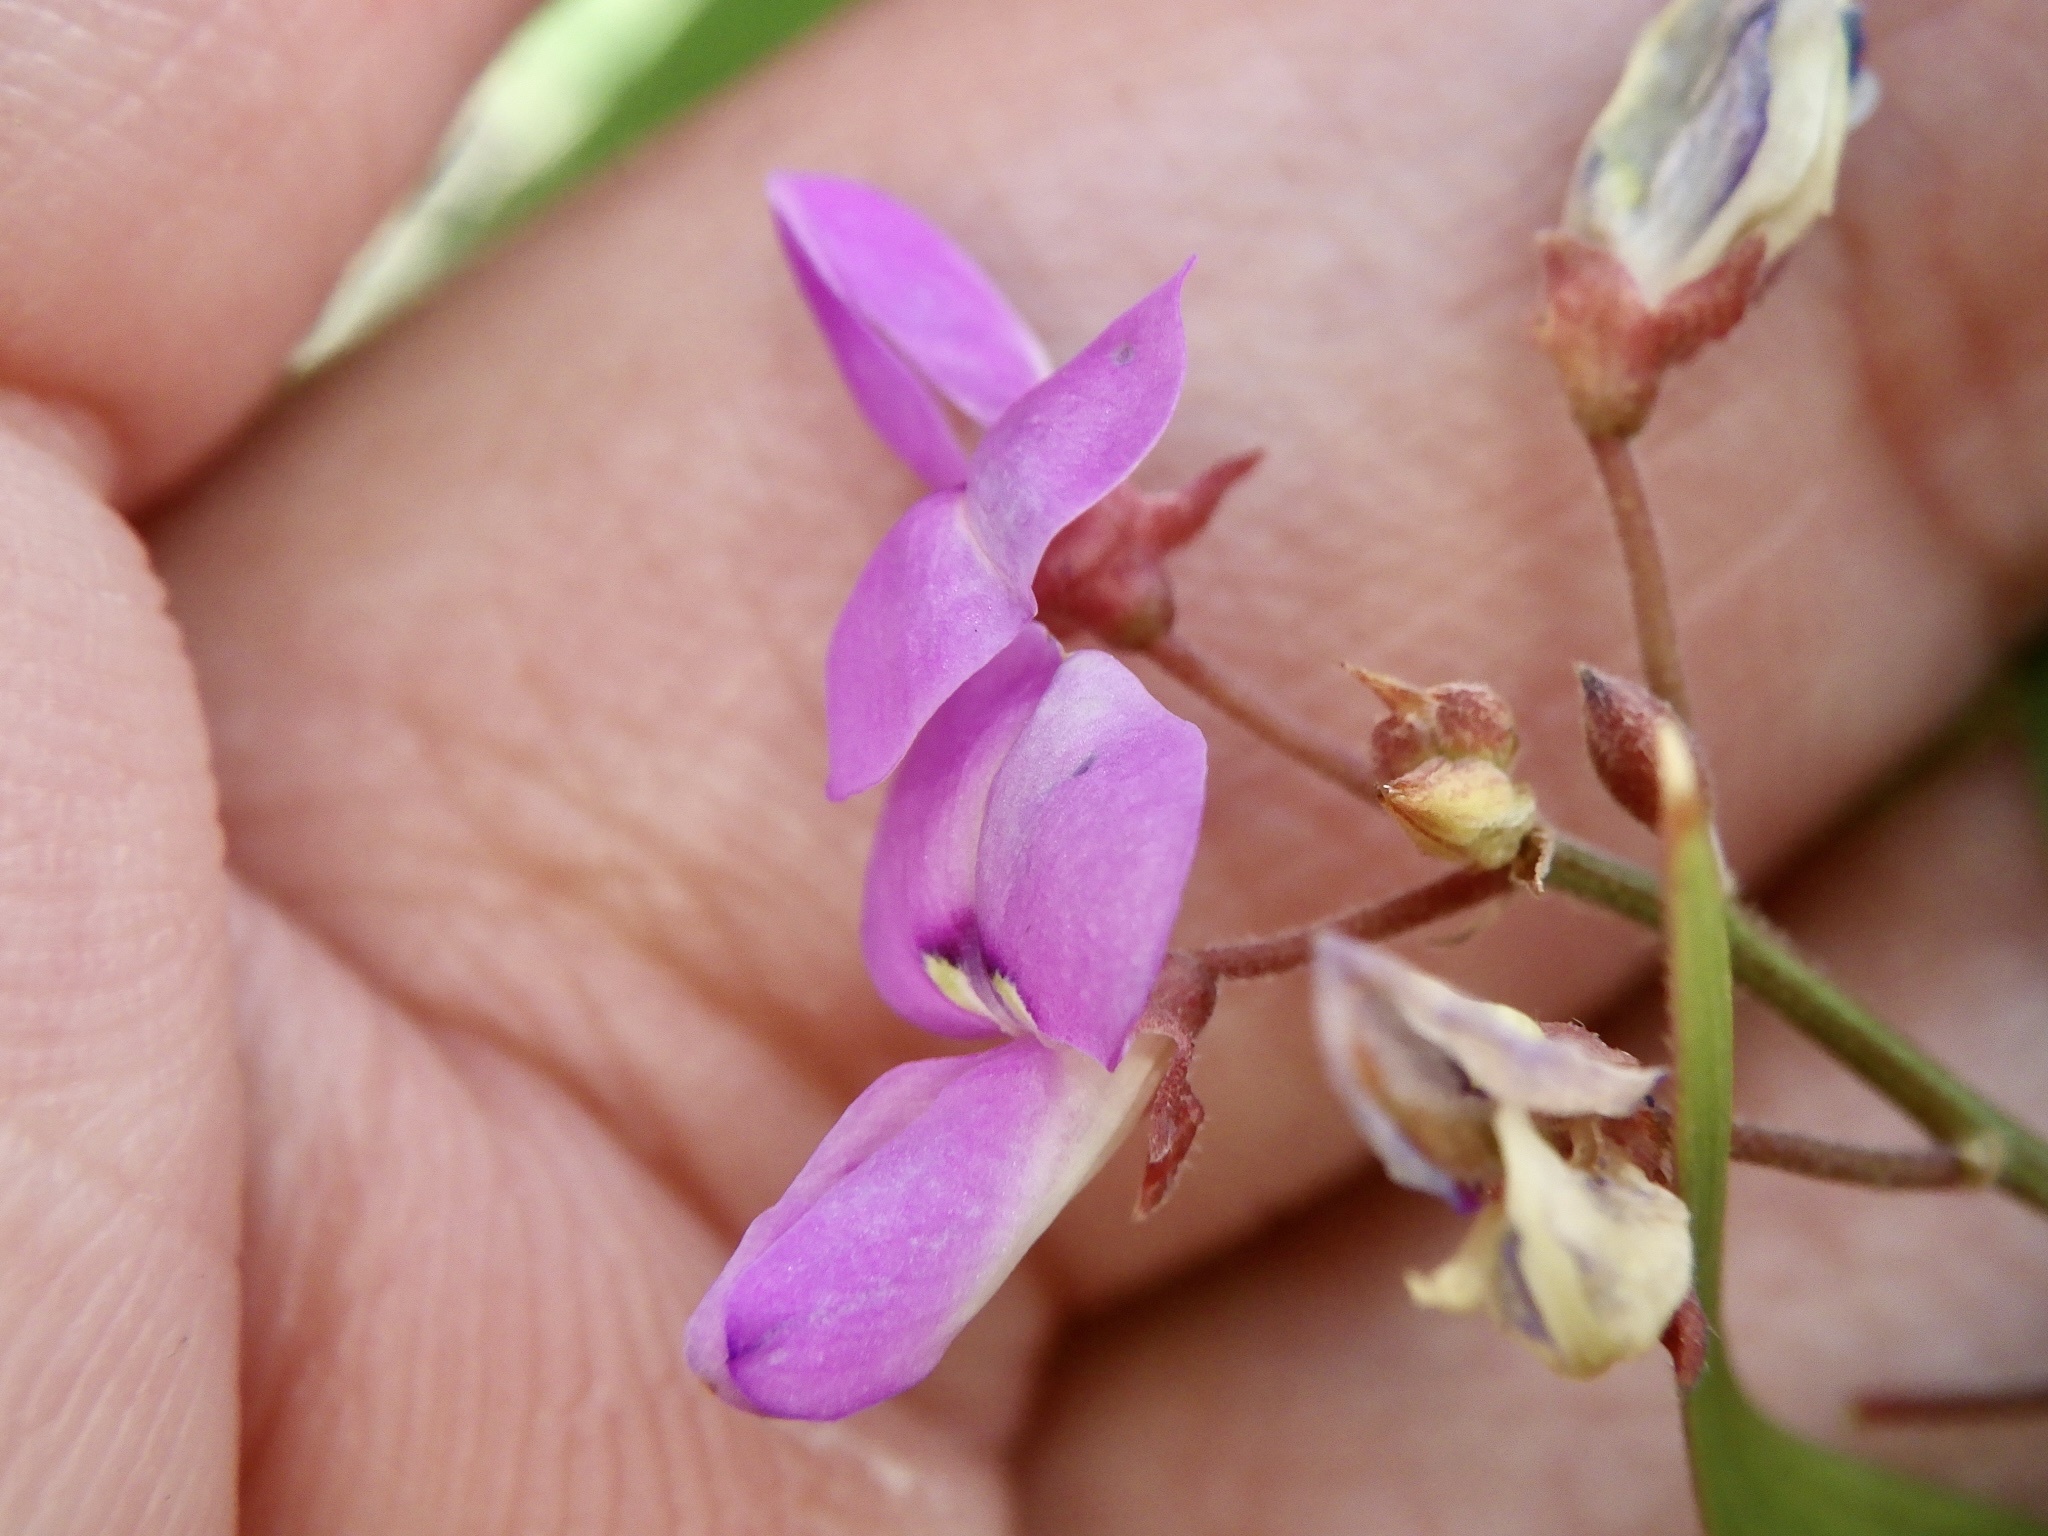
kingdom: Plantae
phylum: Tracheophyta
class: Magnoliopsida
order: Fabales
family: Fabaceae
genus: Desmodium
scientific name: Desmodium paniculatum
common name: Panicled tick-clover
